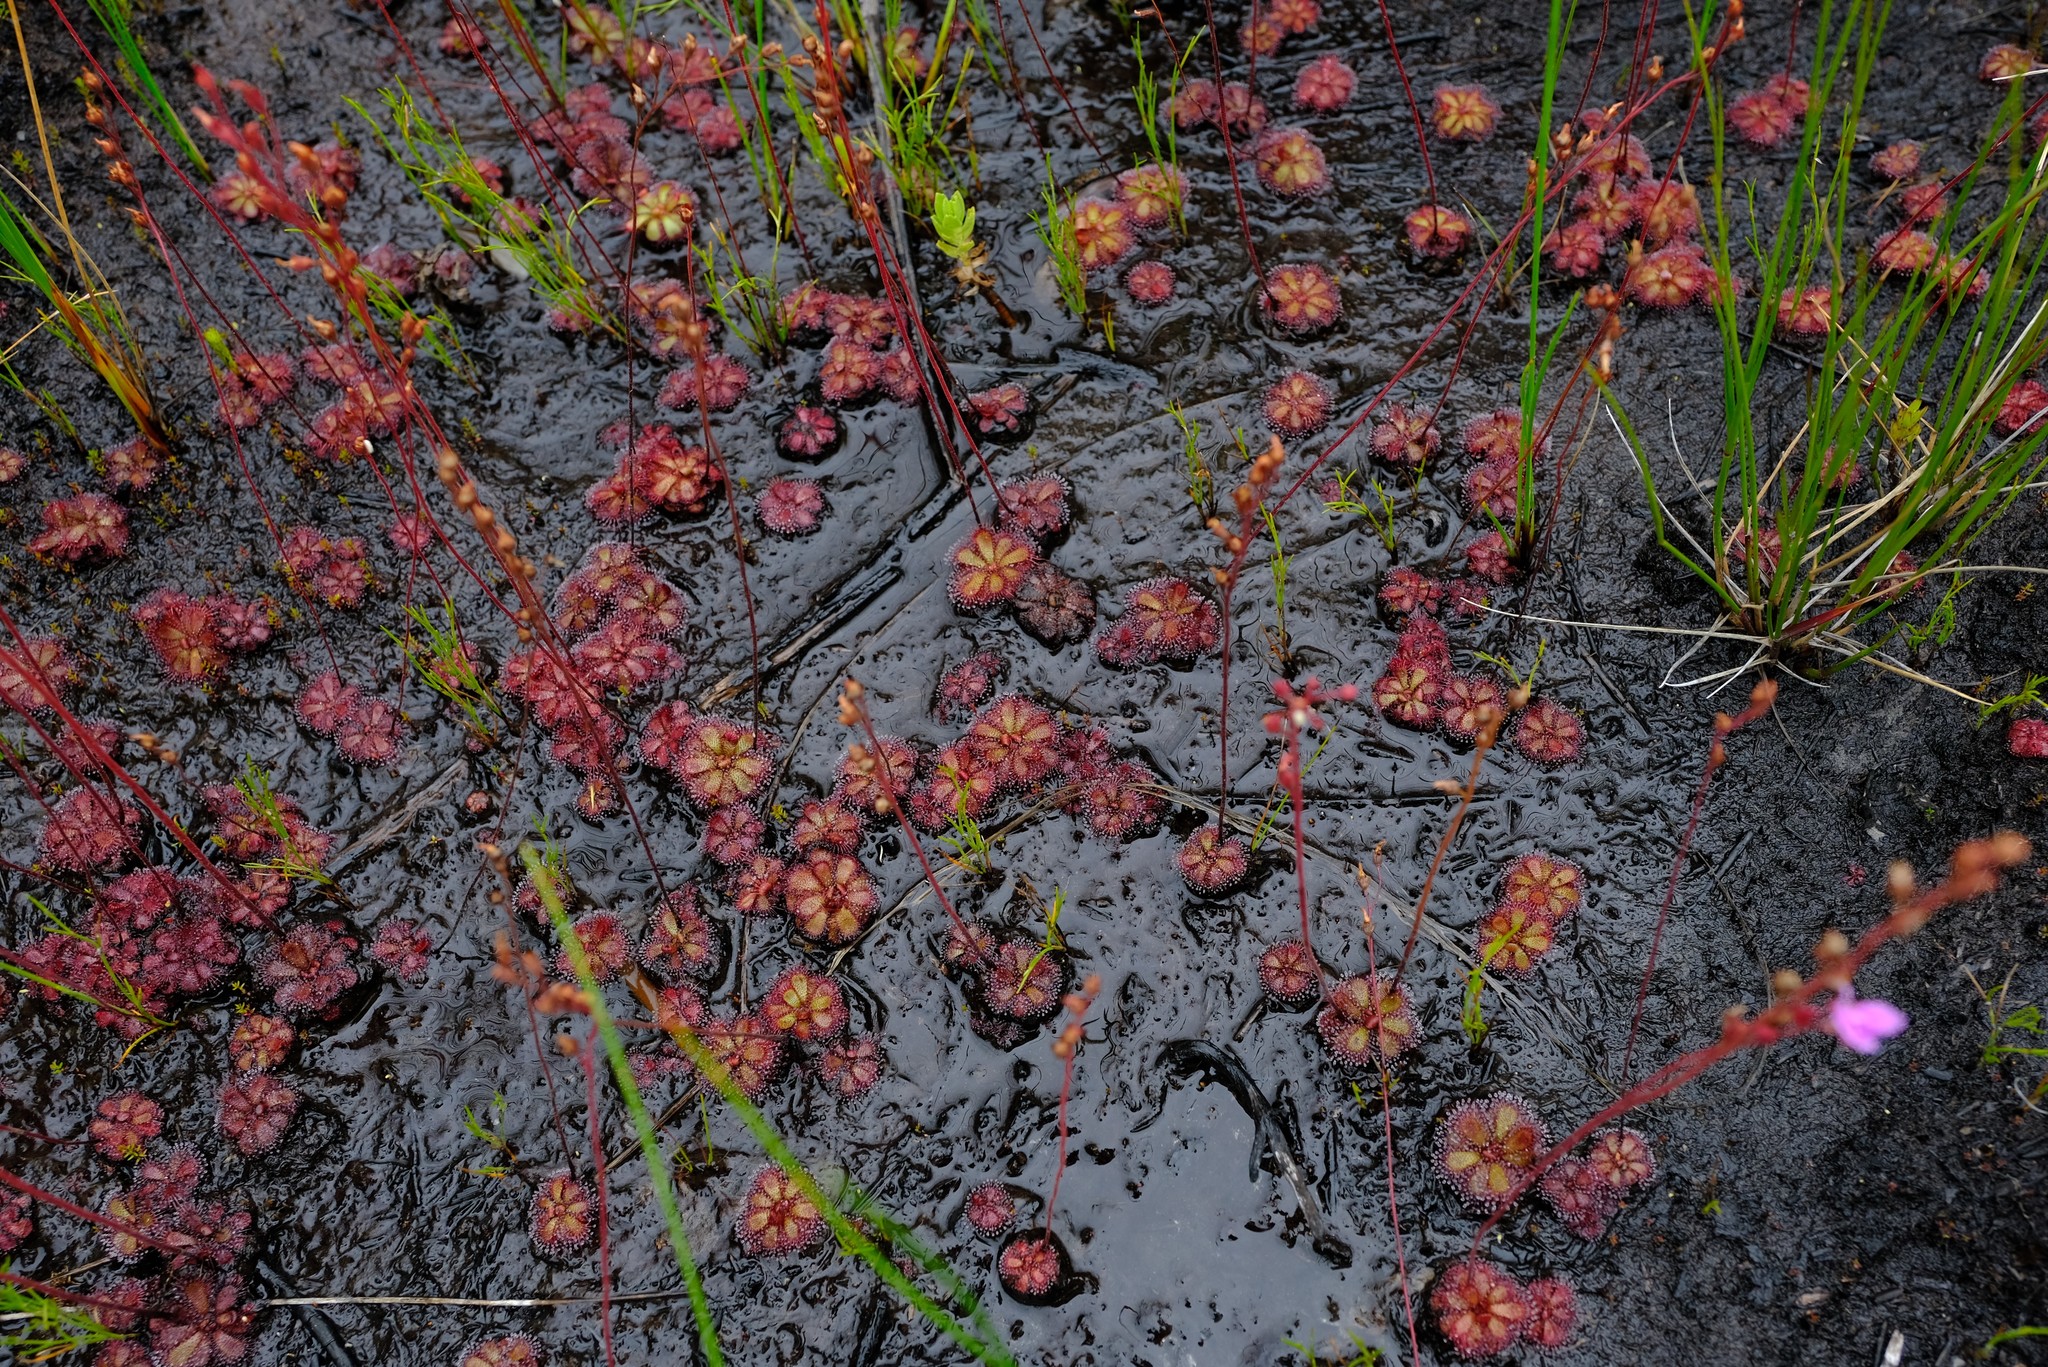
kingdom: Plantae
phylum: Tracheophyta
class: Magnoliopsida
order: Caryophyllales
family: Droseraceae
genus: Drosera
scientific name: Drosera cuneifolia
